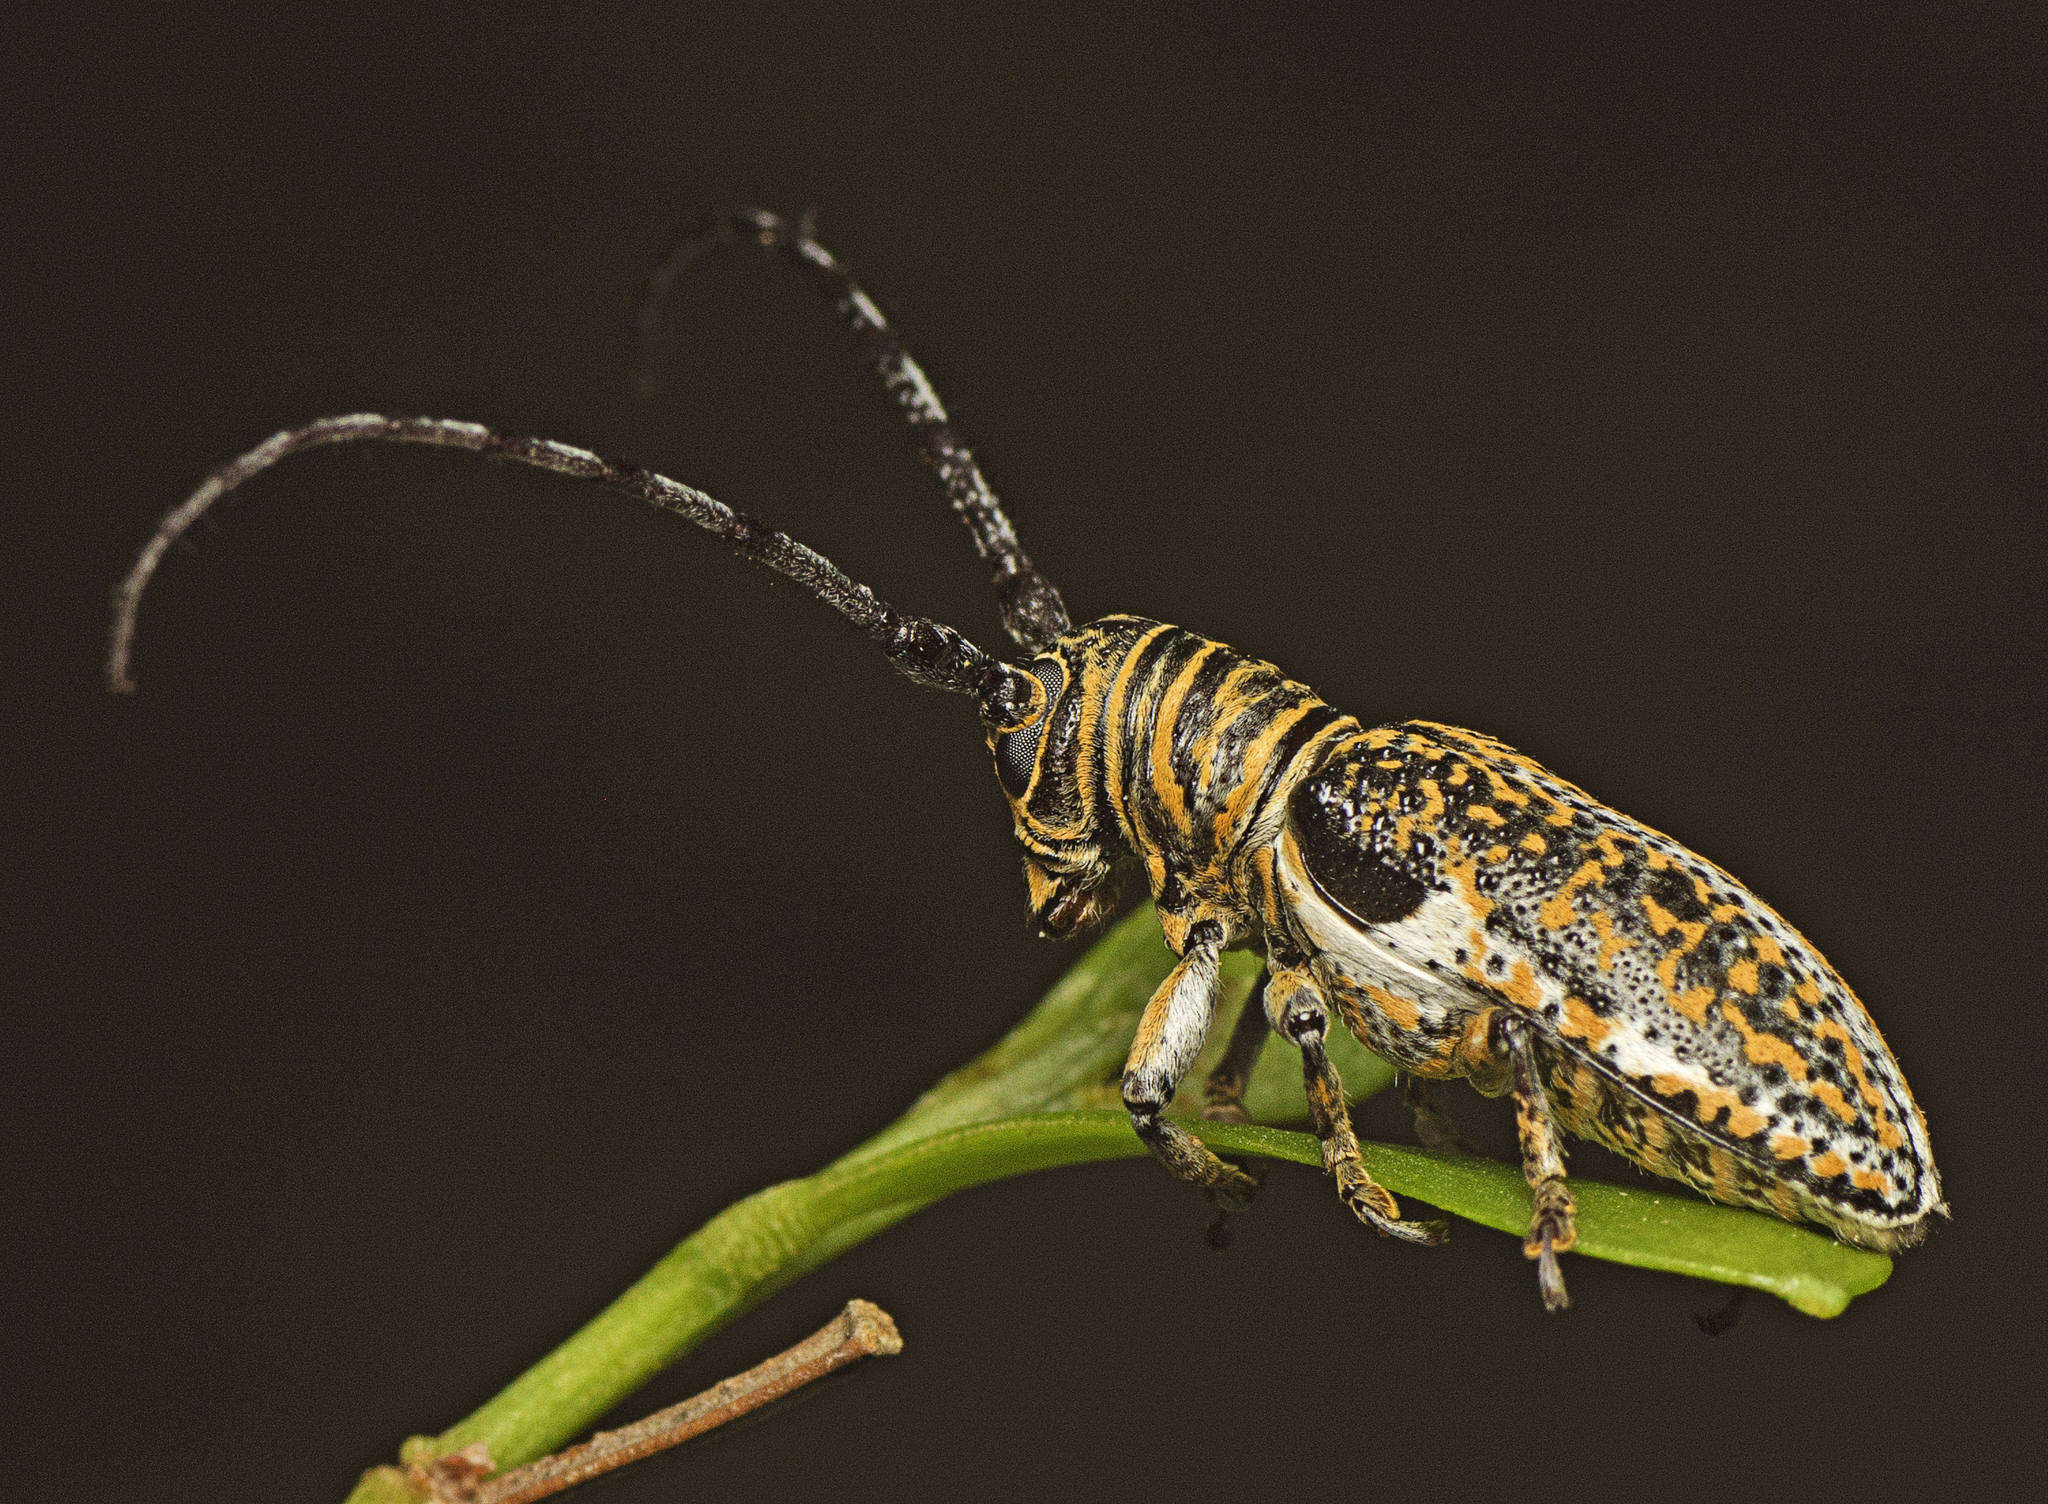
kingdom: Animalia
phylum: Arthropoda
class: Insecta
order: Coleoptera
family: Cerambycidae
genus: Rhytiphora
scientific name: Rhytiphora vestigialis
